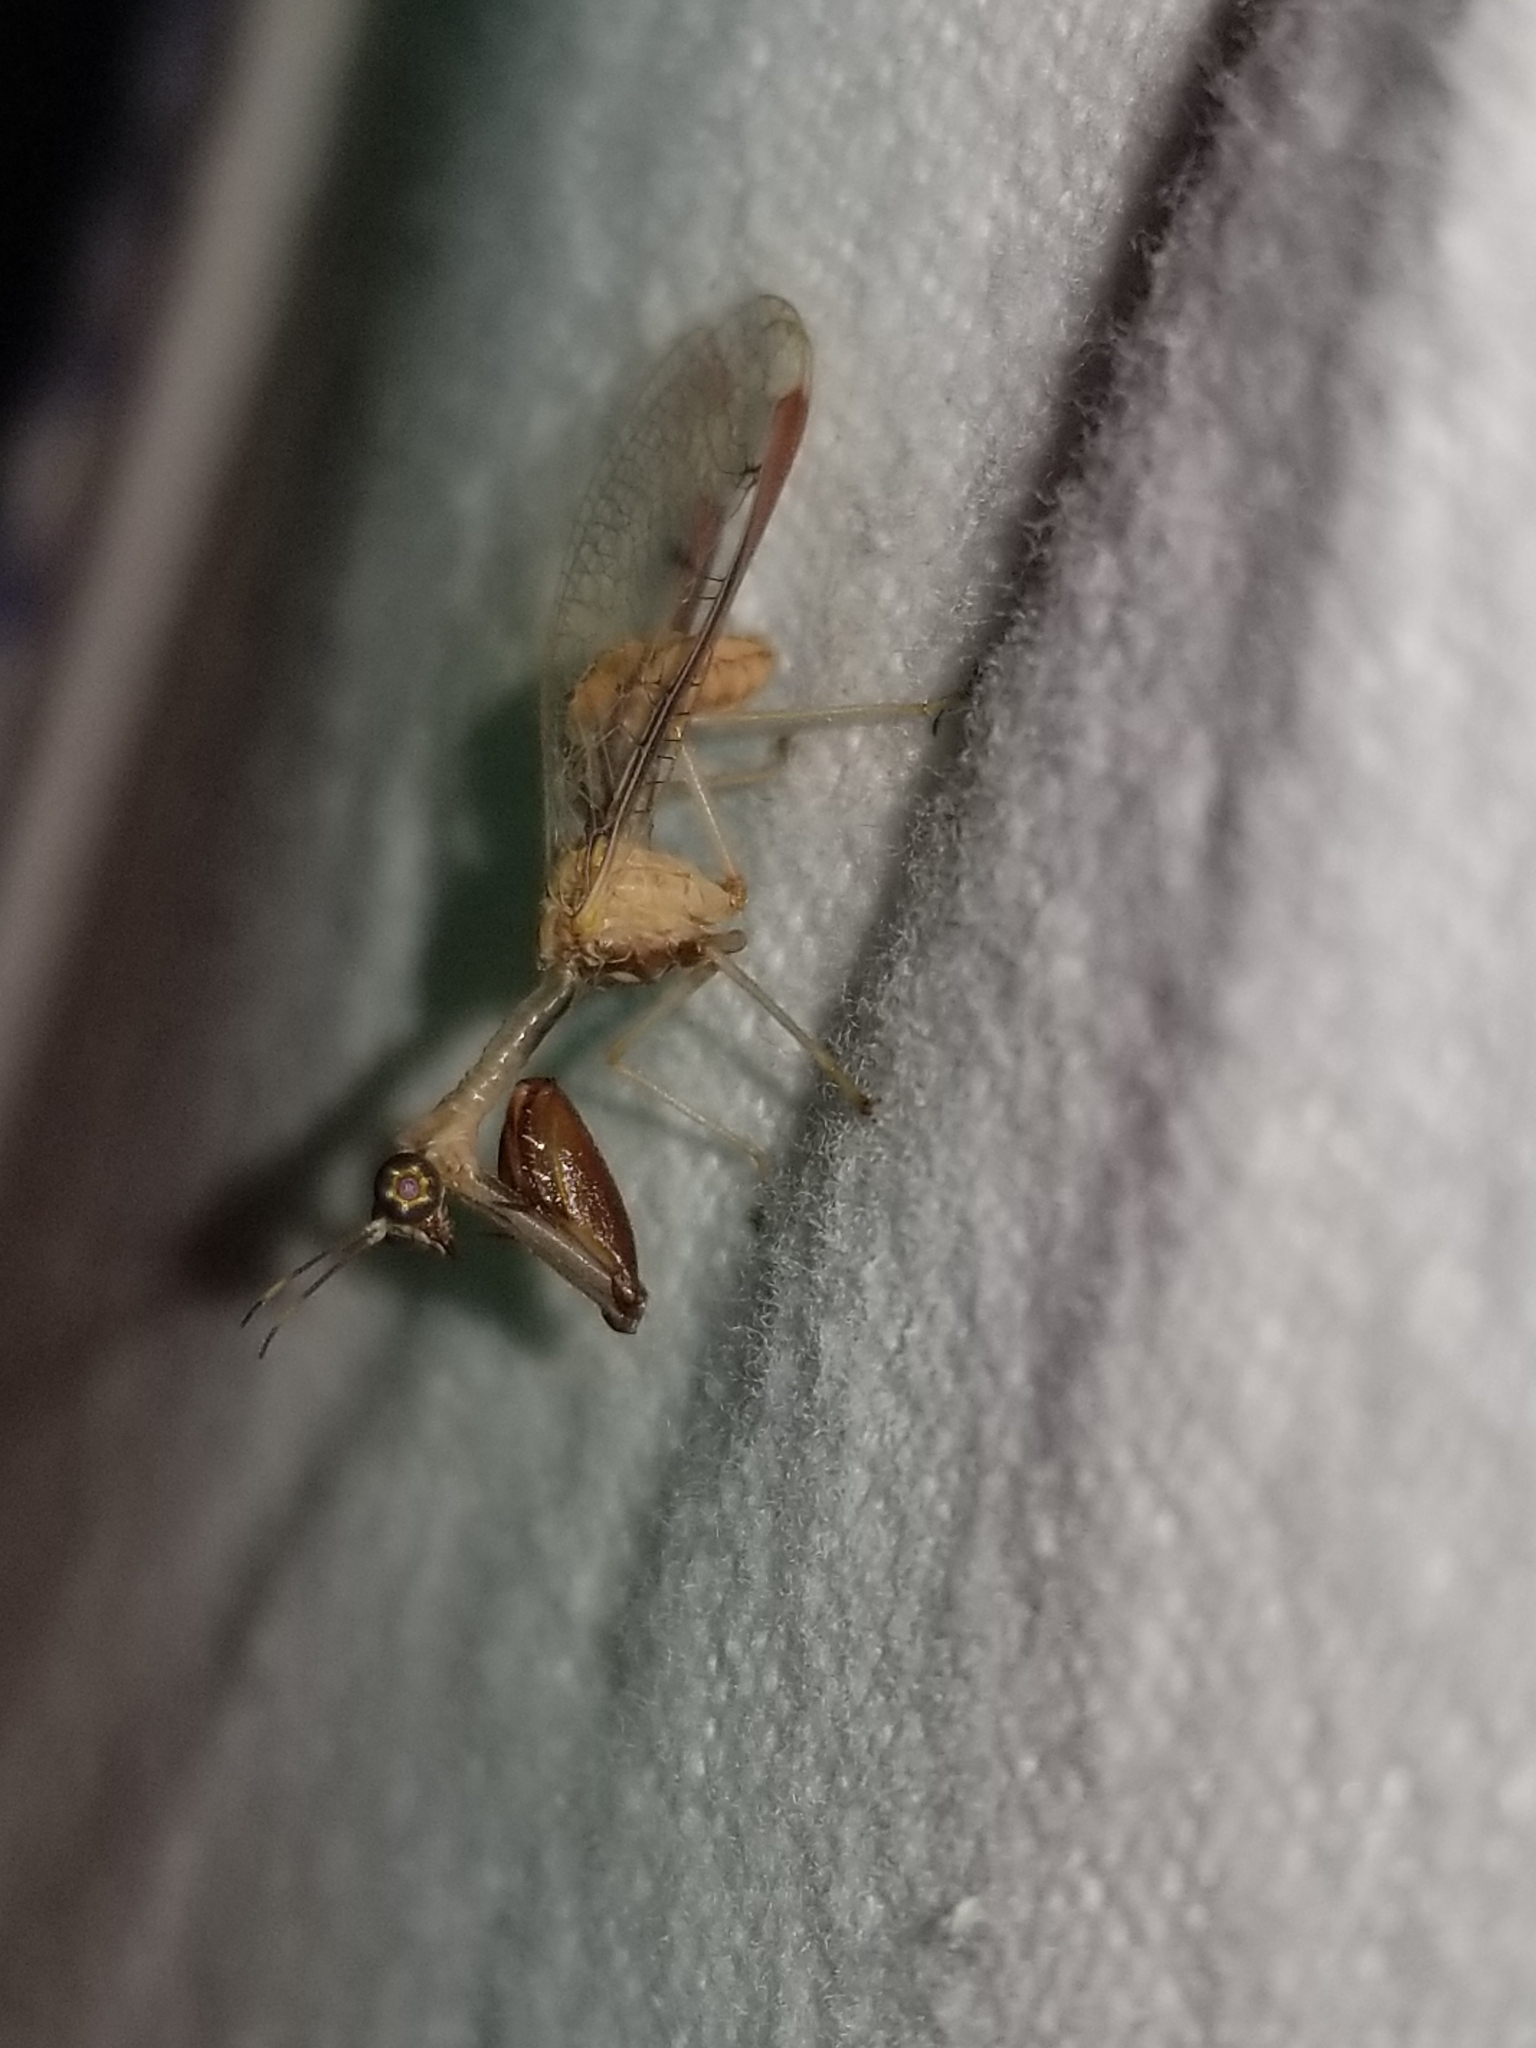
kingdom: Animalia
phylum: Arthropoda
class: Insecta
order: Neuroptera
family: Mantispidae
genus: Dicromantispa
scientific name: Dicromantispa interrupta
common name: Four-spotted mantidfly
